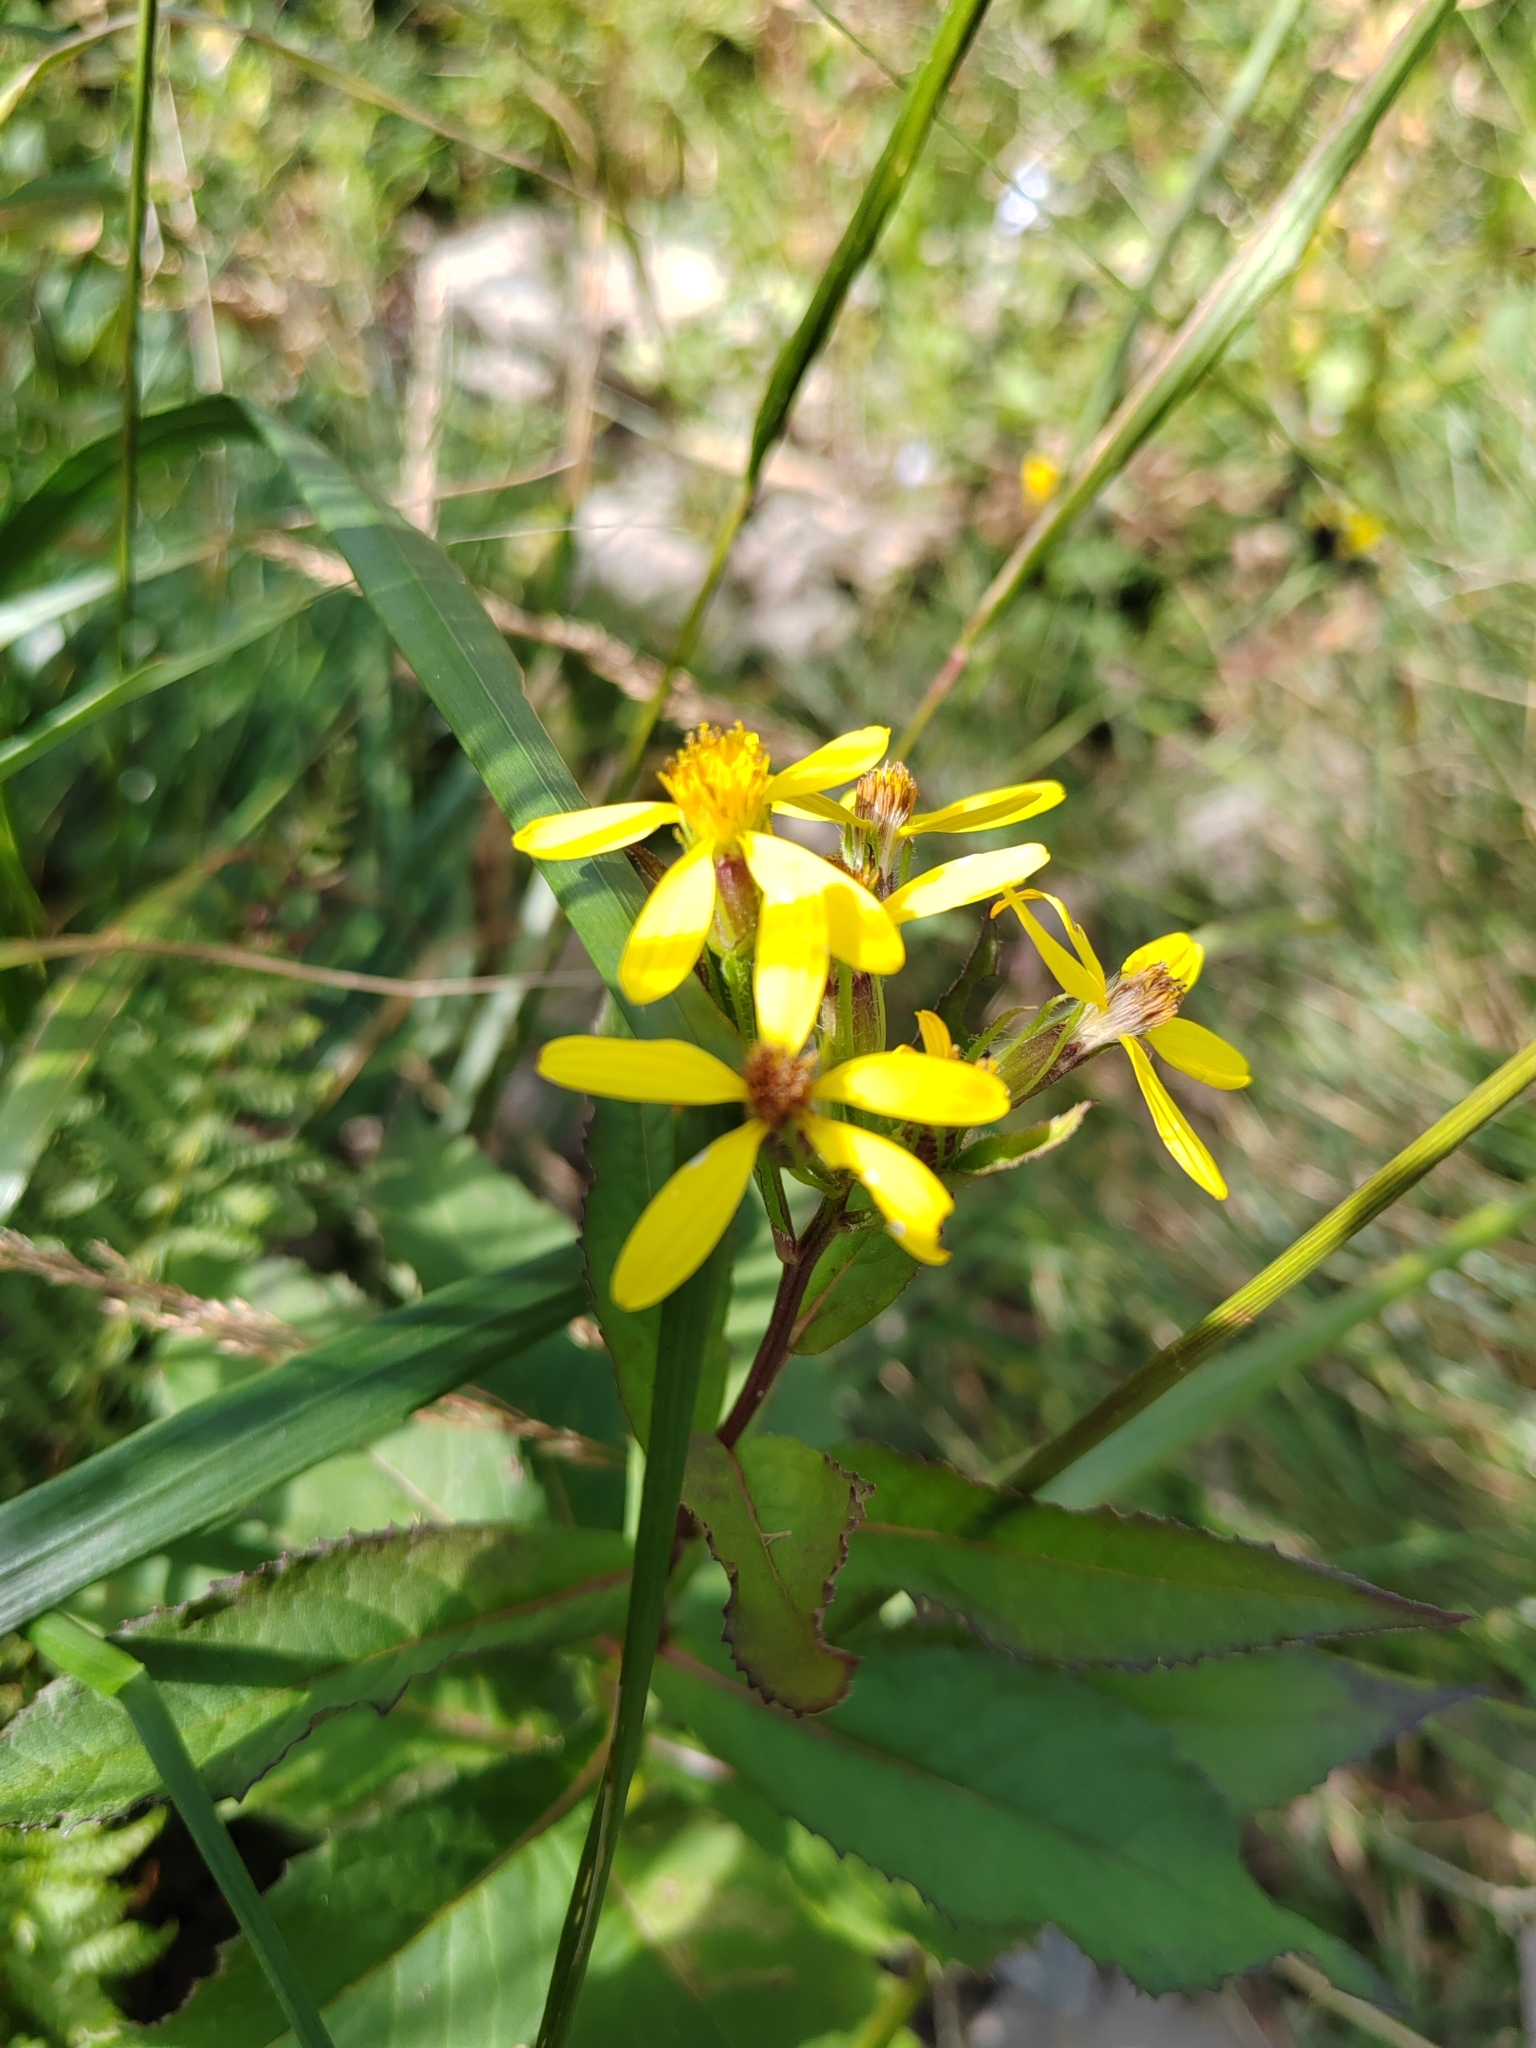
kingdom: Plantae
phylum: Tracheophyta
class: Magnoliopsida
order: Asterales
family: Asteraceae
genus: Senecio
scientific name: Senecio propinquus
